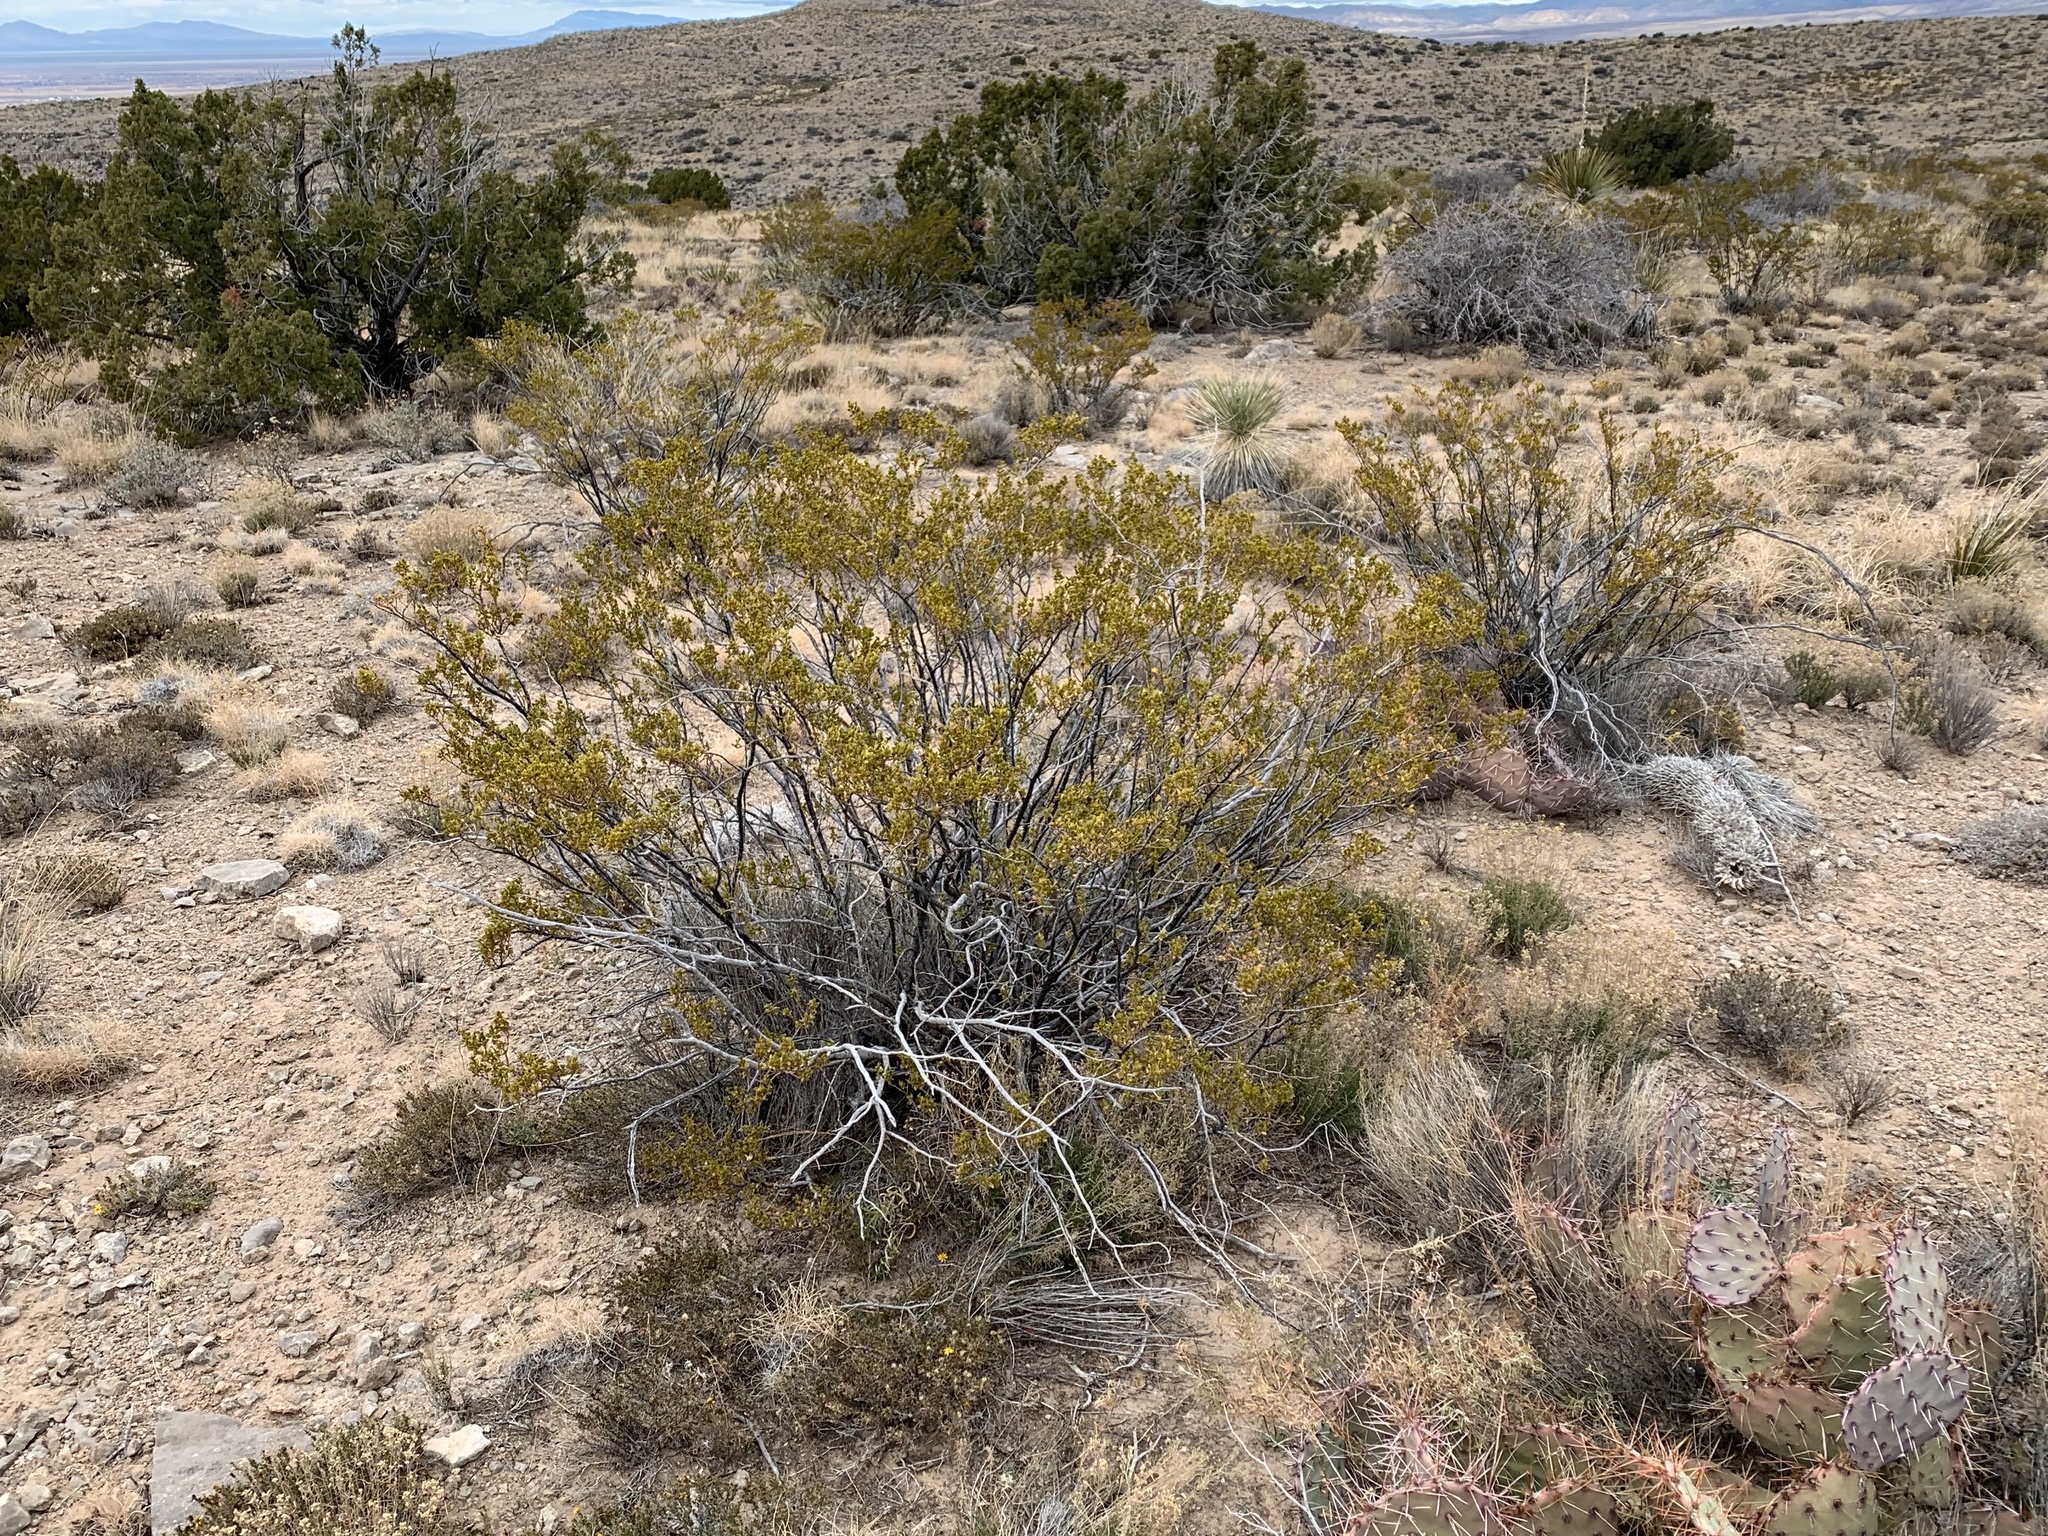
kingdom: Plantae
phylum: Tracheophyta
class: Magnoliopsida
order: Zygophyllales
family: Zygophyllaceae
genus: Larrea
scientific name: Larrea tridentata
